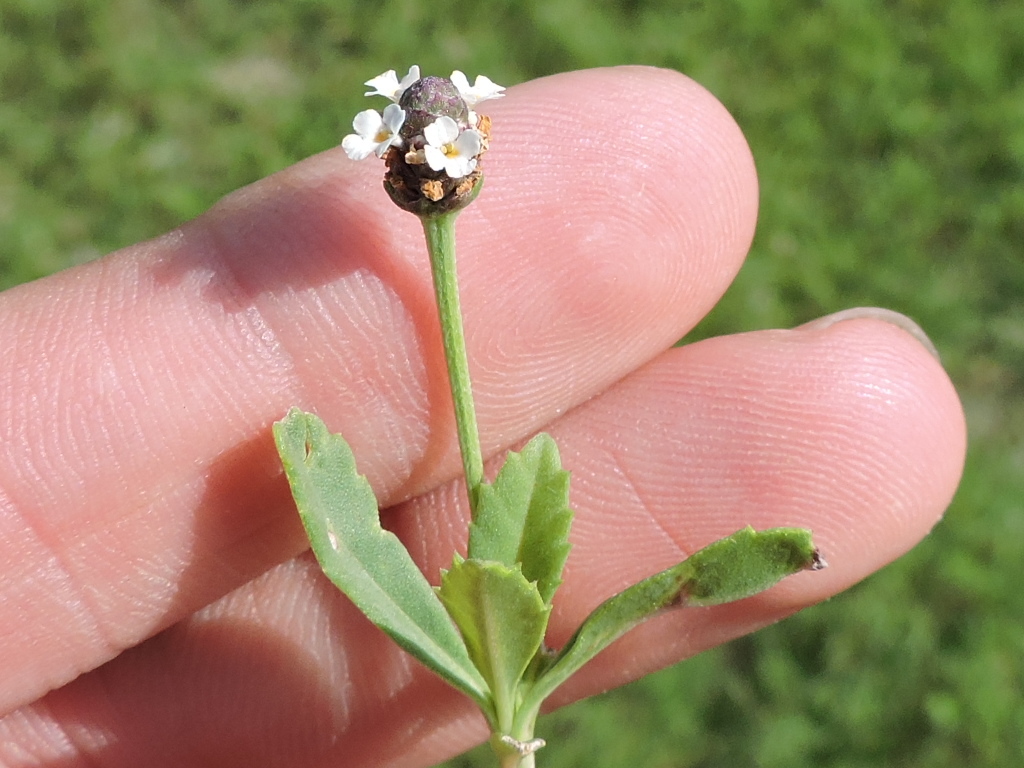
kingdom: Plantae
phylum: Tracheophyta
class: Magnoliopsida
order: Lamiales
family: Verbenaceae
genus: Phyla
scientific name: Phyla nodiflora
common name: Frogfruit
